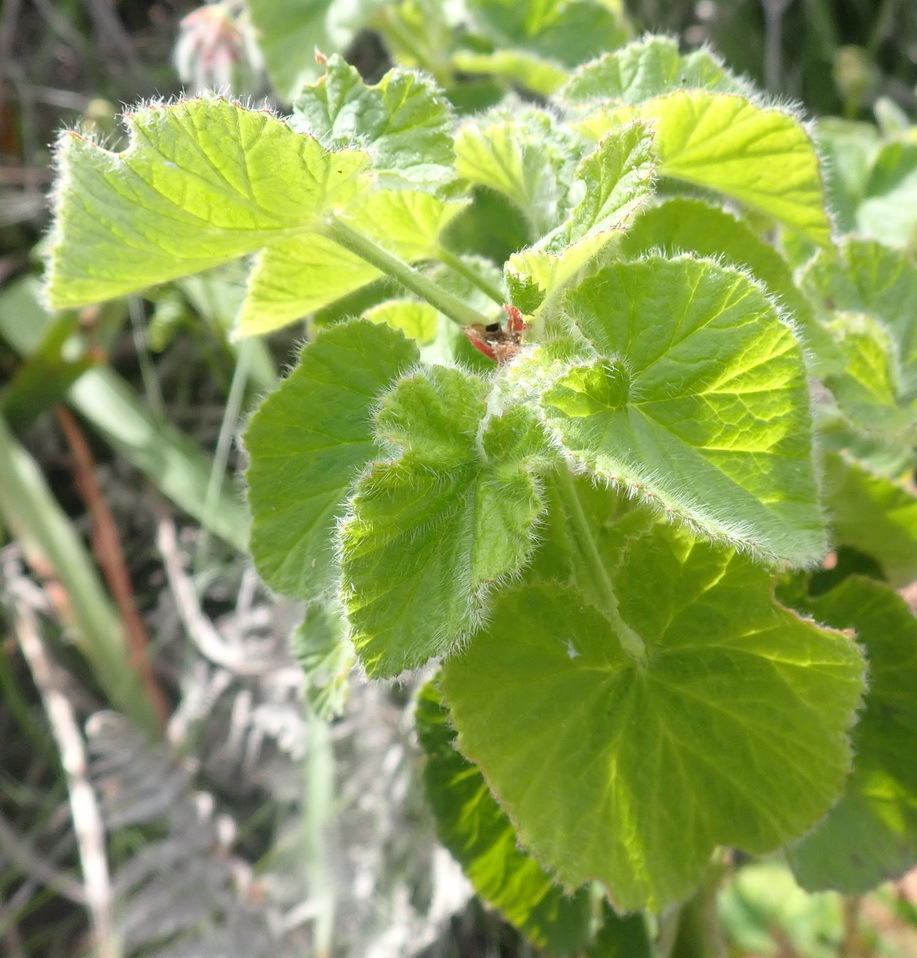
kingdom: Plantae
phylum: Tracheophyta
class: Magnoliopsida
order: Geraniales
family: Geraniaceae
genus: Pelargonium
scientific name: Pelargonium cordifolium
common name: Heart-leaf pelargonium
